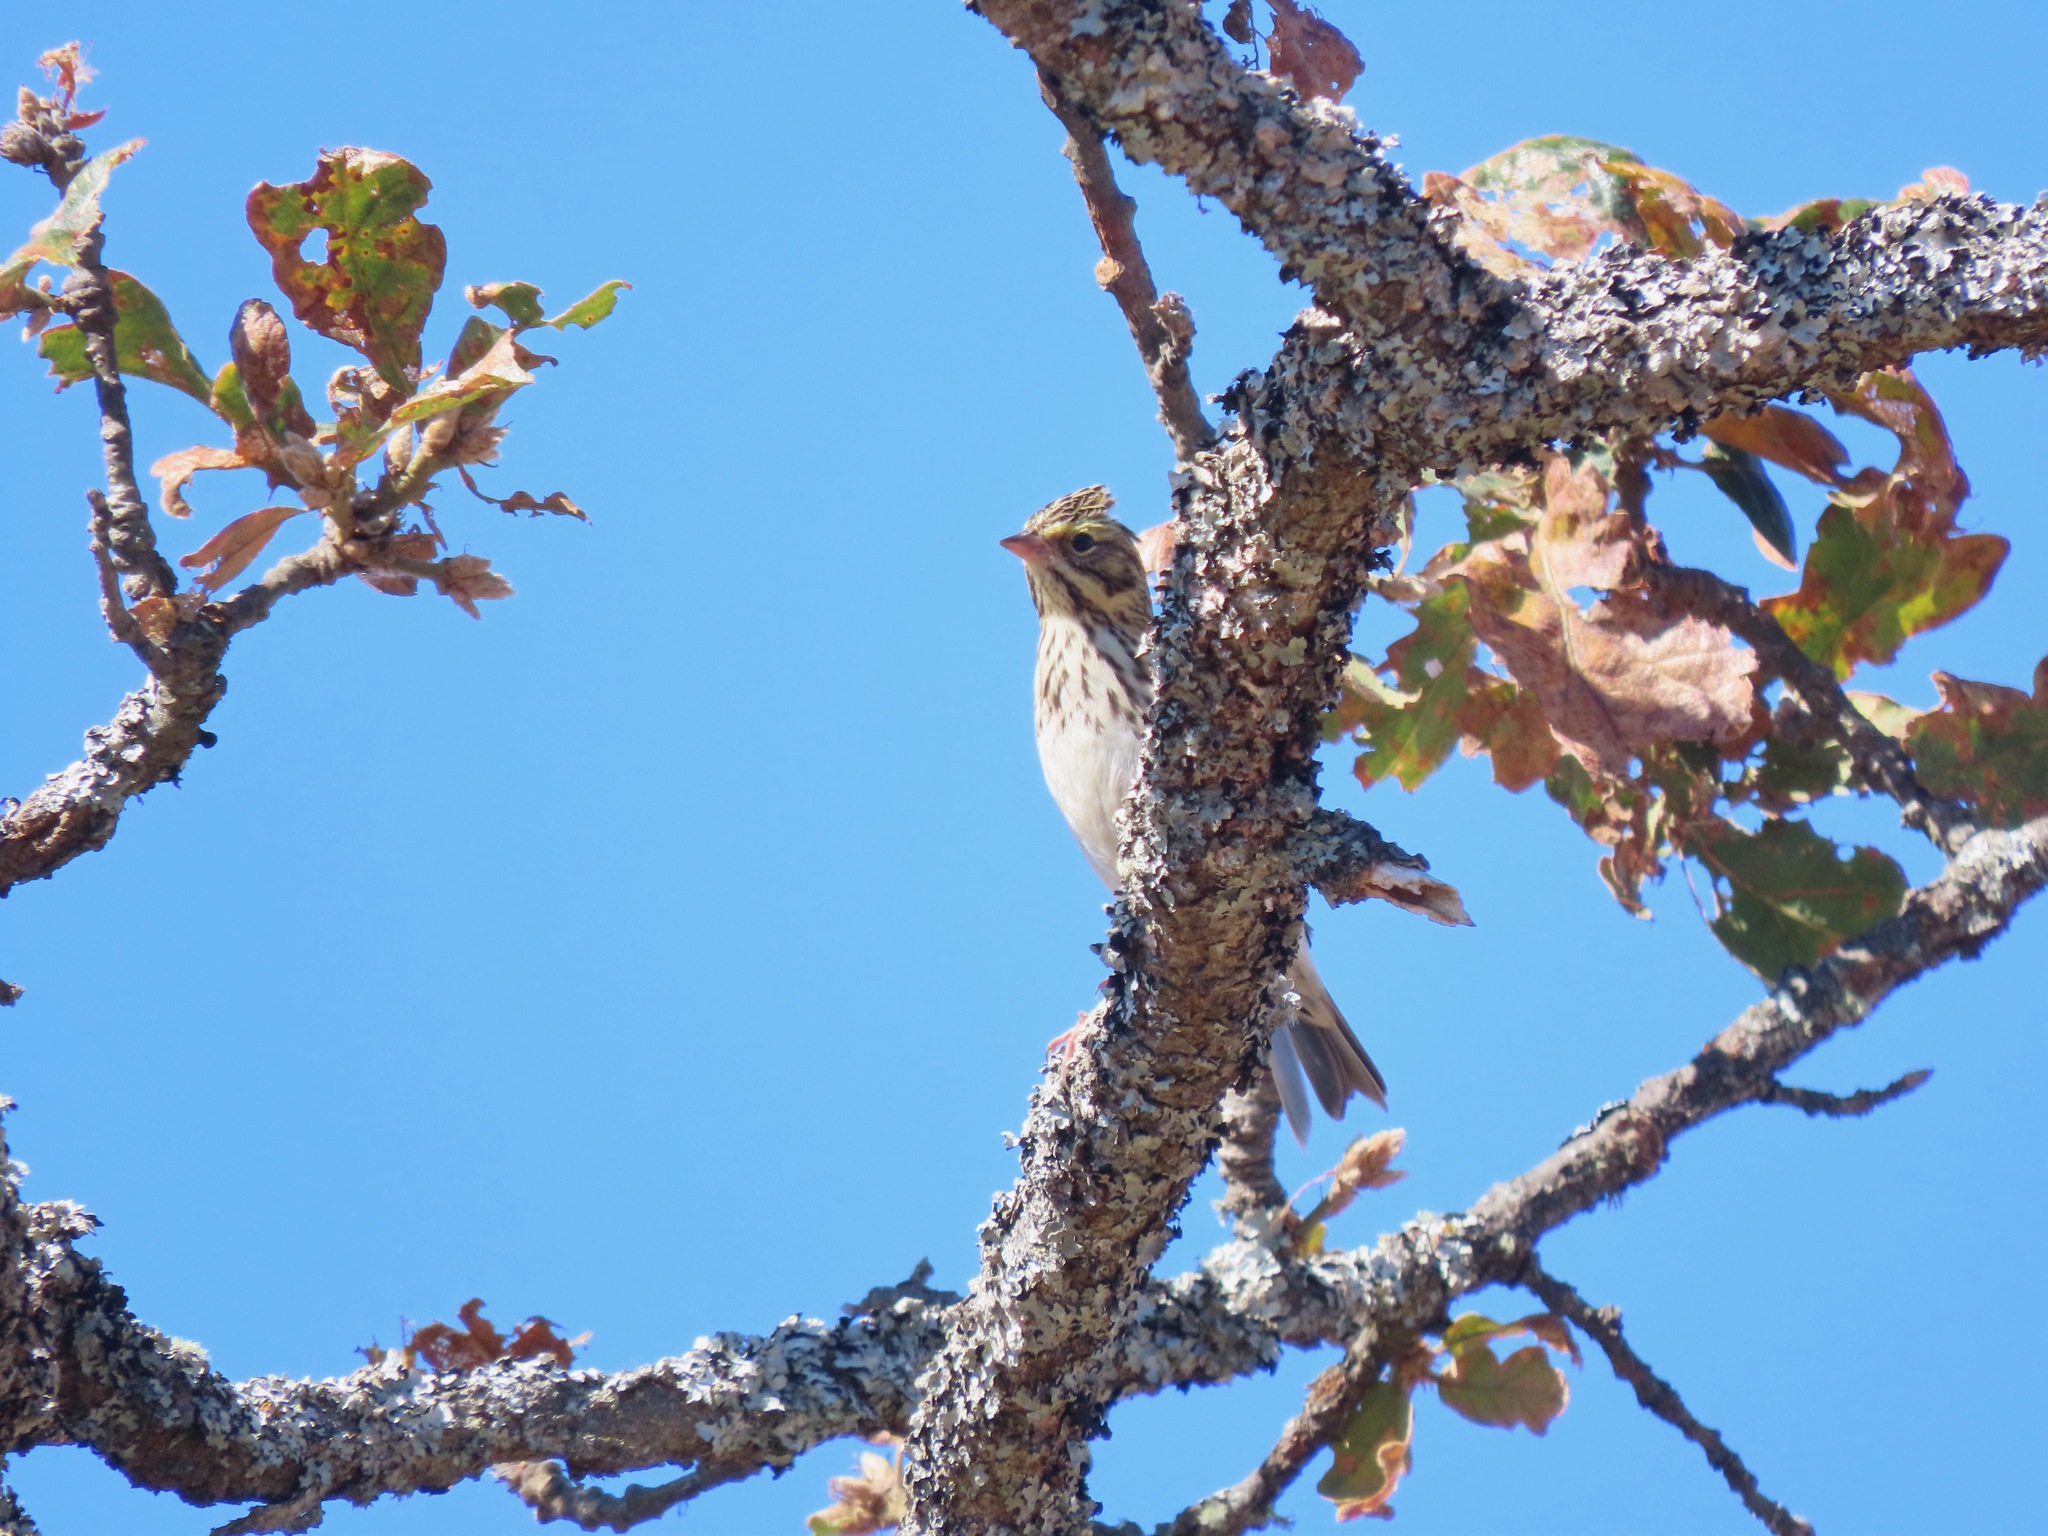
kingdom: Animalia
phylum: Chordata
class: Aves
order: Passeriformes
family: Passerellidae
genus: Passerculus
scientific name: Passerculus sandwichensis
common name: Savannah sparrow
